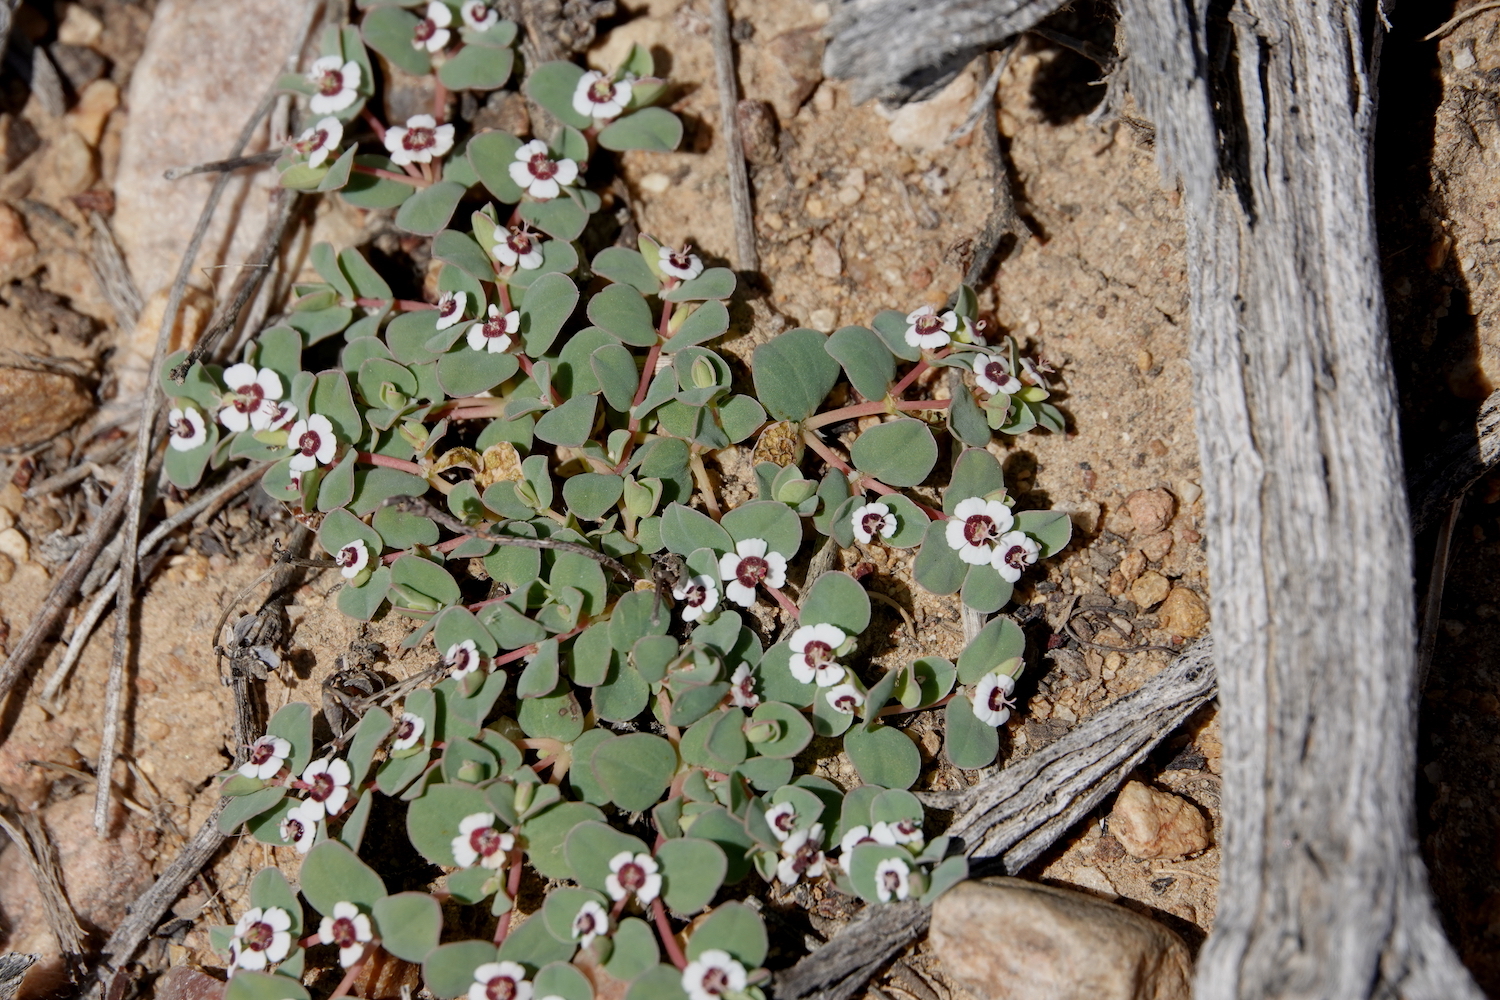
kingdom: Plantae
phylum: Tracheophyta
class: Magnoliopsida
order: Malpighiales
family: Euphorbiaceae
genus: Euphorbia
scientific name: Euphorbia albomarginata
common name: Whitemargin sandmat
